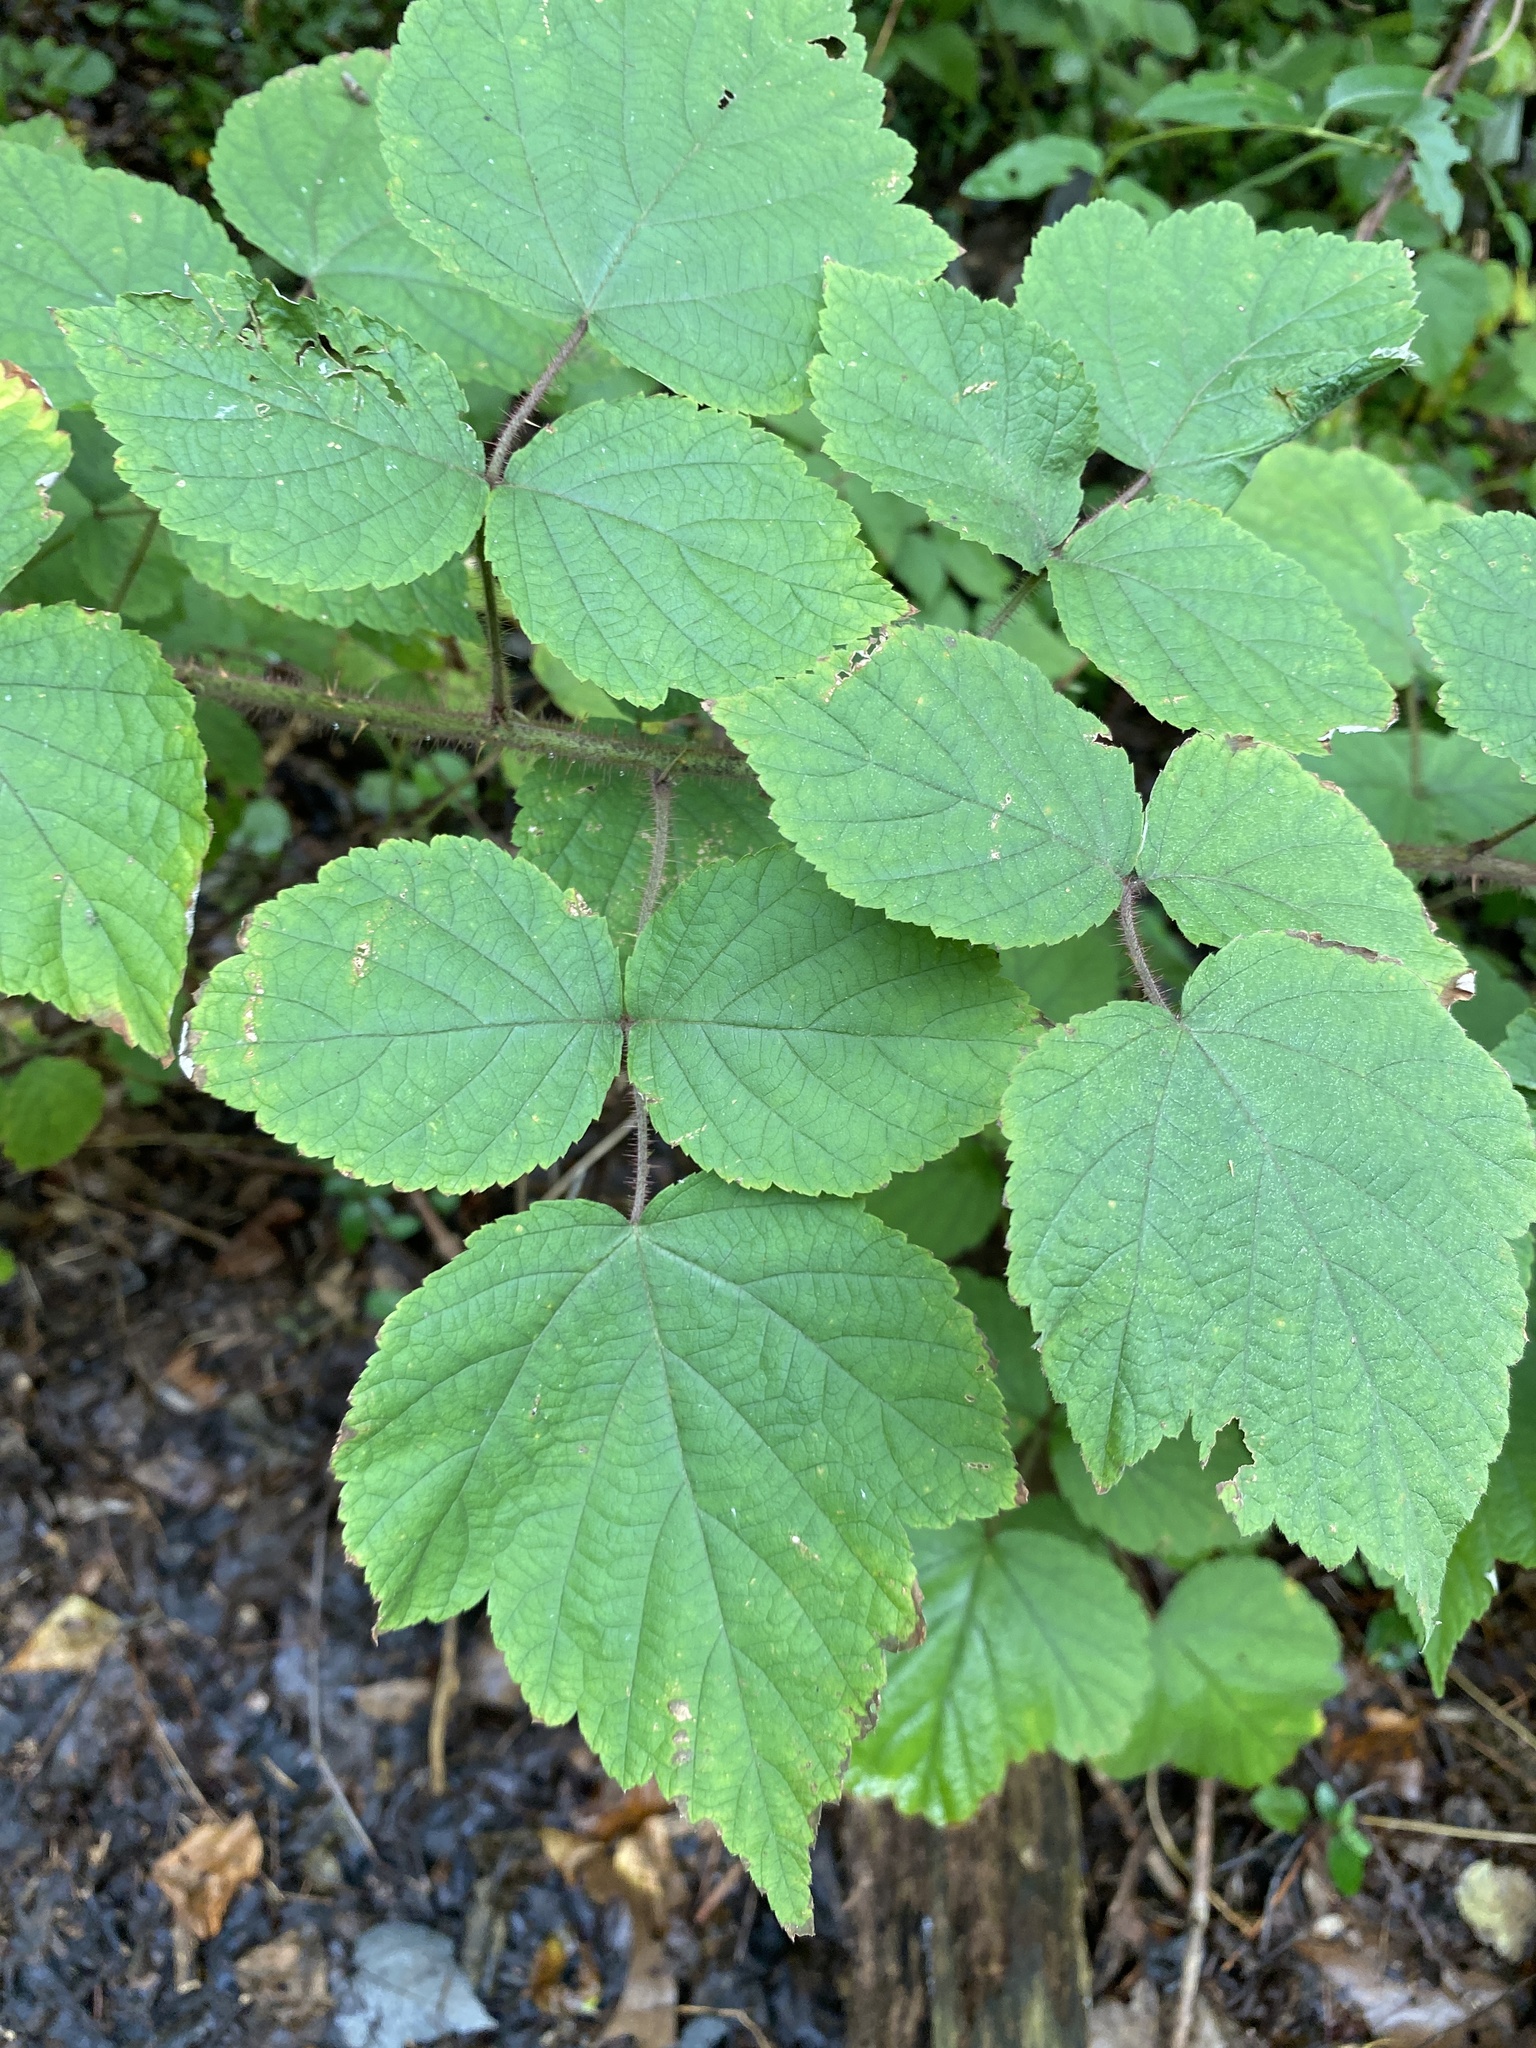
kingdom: Plantae
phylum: Tracheophyta
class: Magnoliopsida
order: Rosales
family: Rosaceae
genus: Rubus
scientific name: Rubus phoenicolasius
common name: Japanese wineberry
